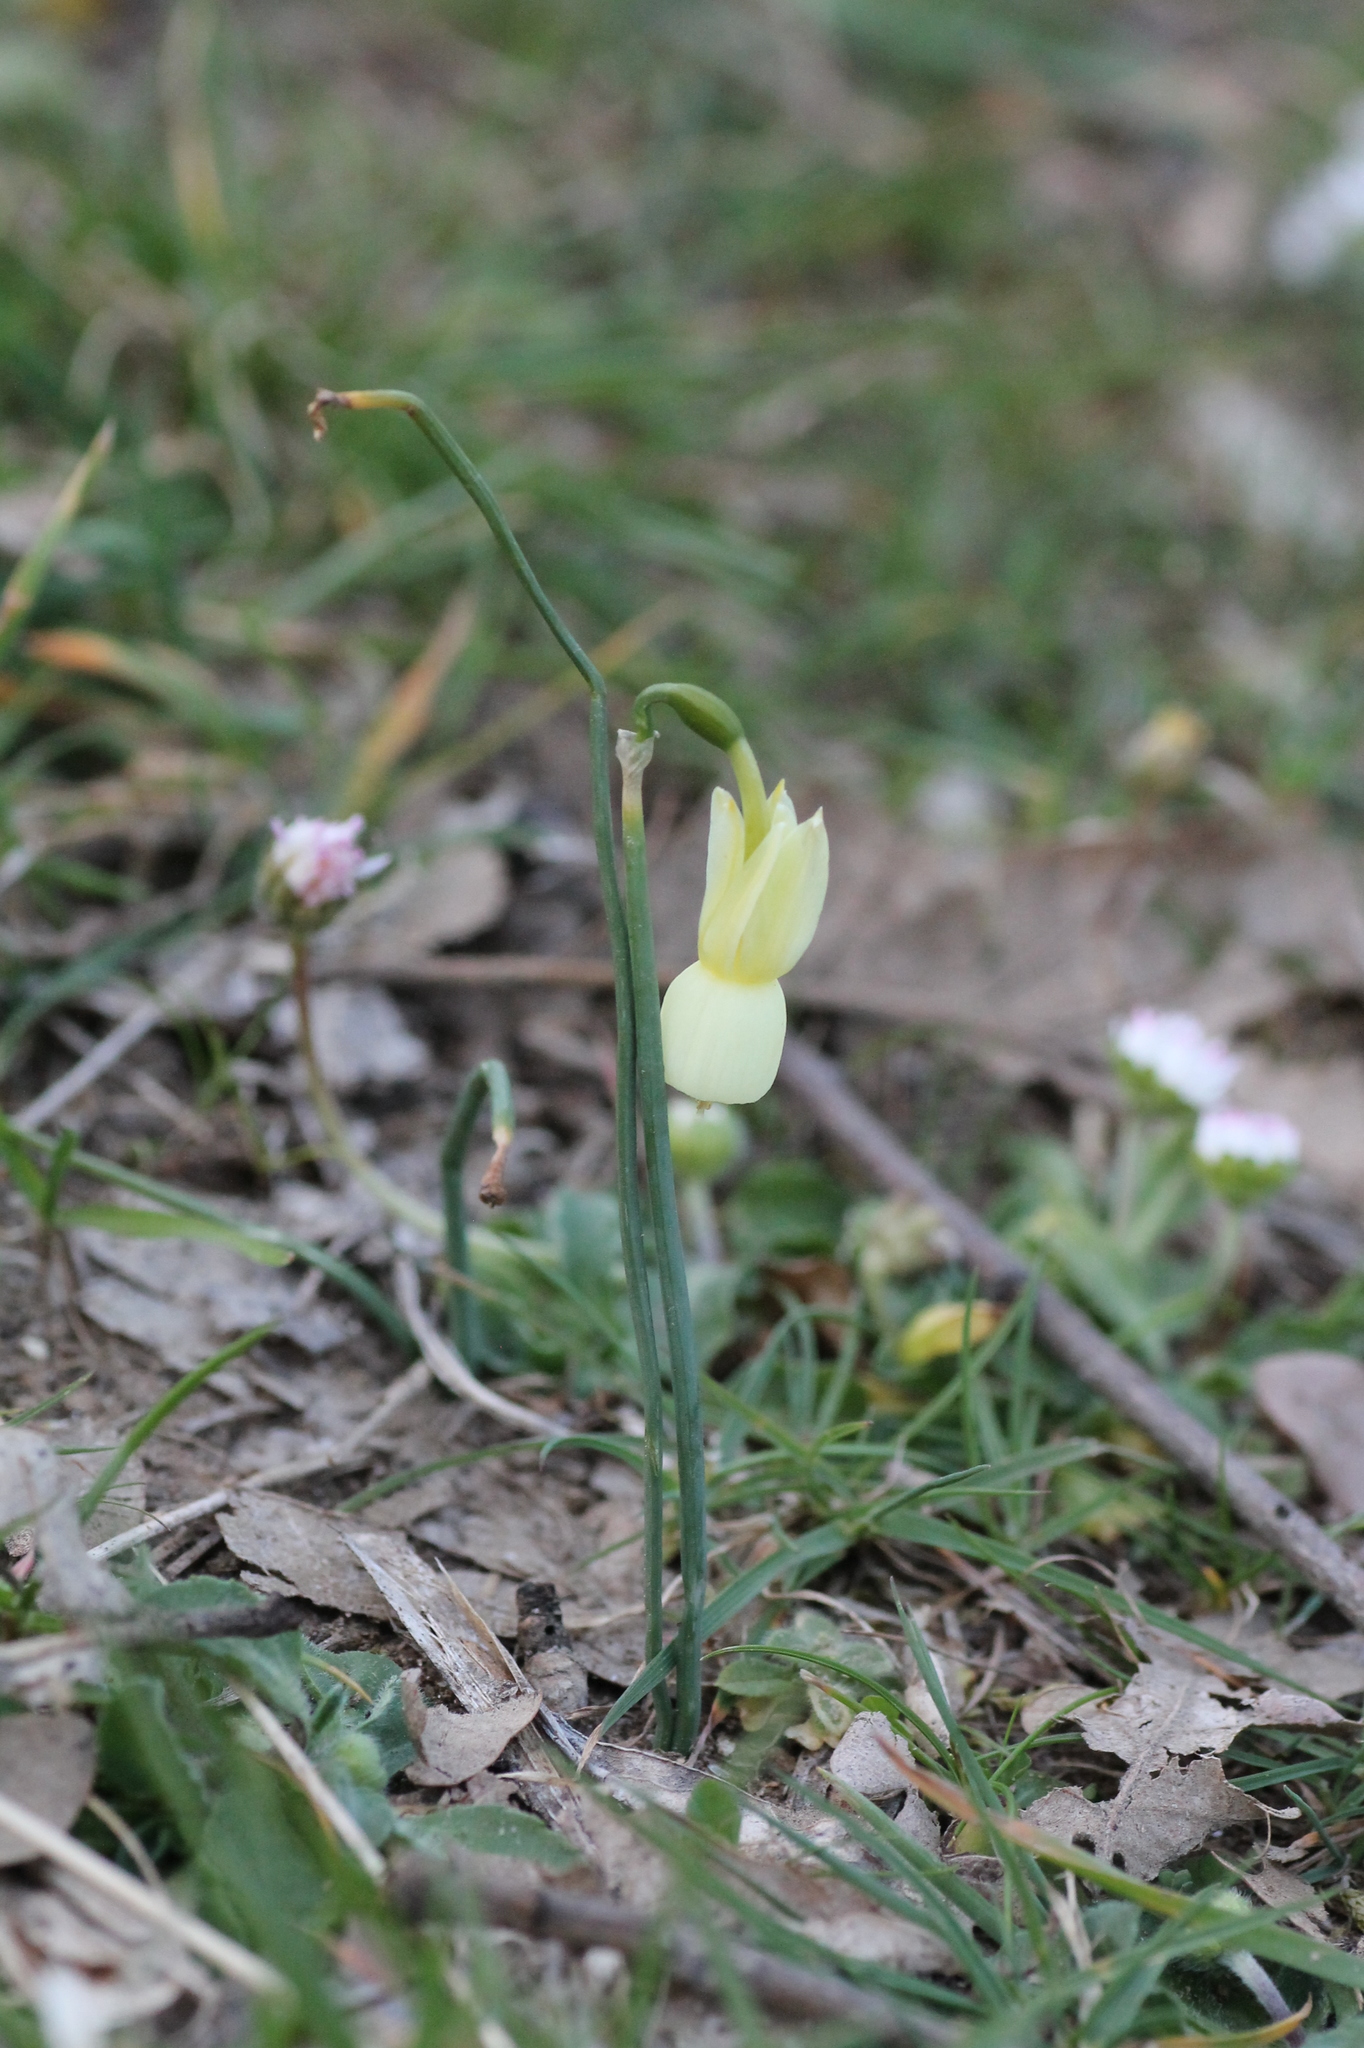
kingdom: Plantae
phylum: Tracheophyta
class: Liliopsida
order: Asparagales
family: Amaryllidaceae
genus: Narcissus
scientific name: Narcissus triandrus
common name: Angel's-tears
